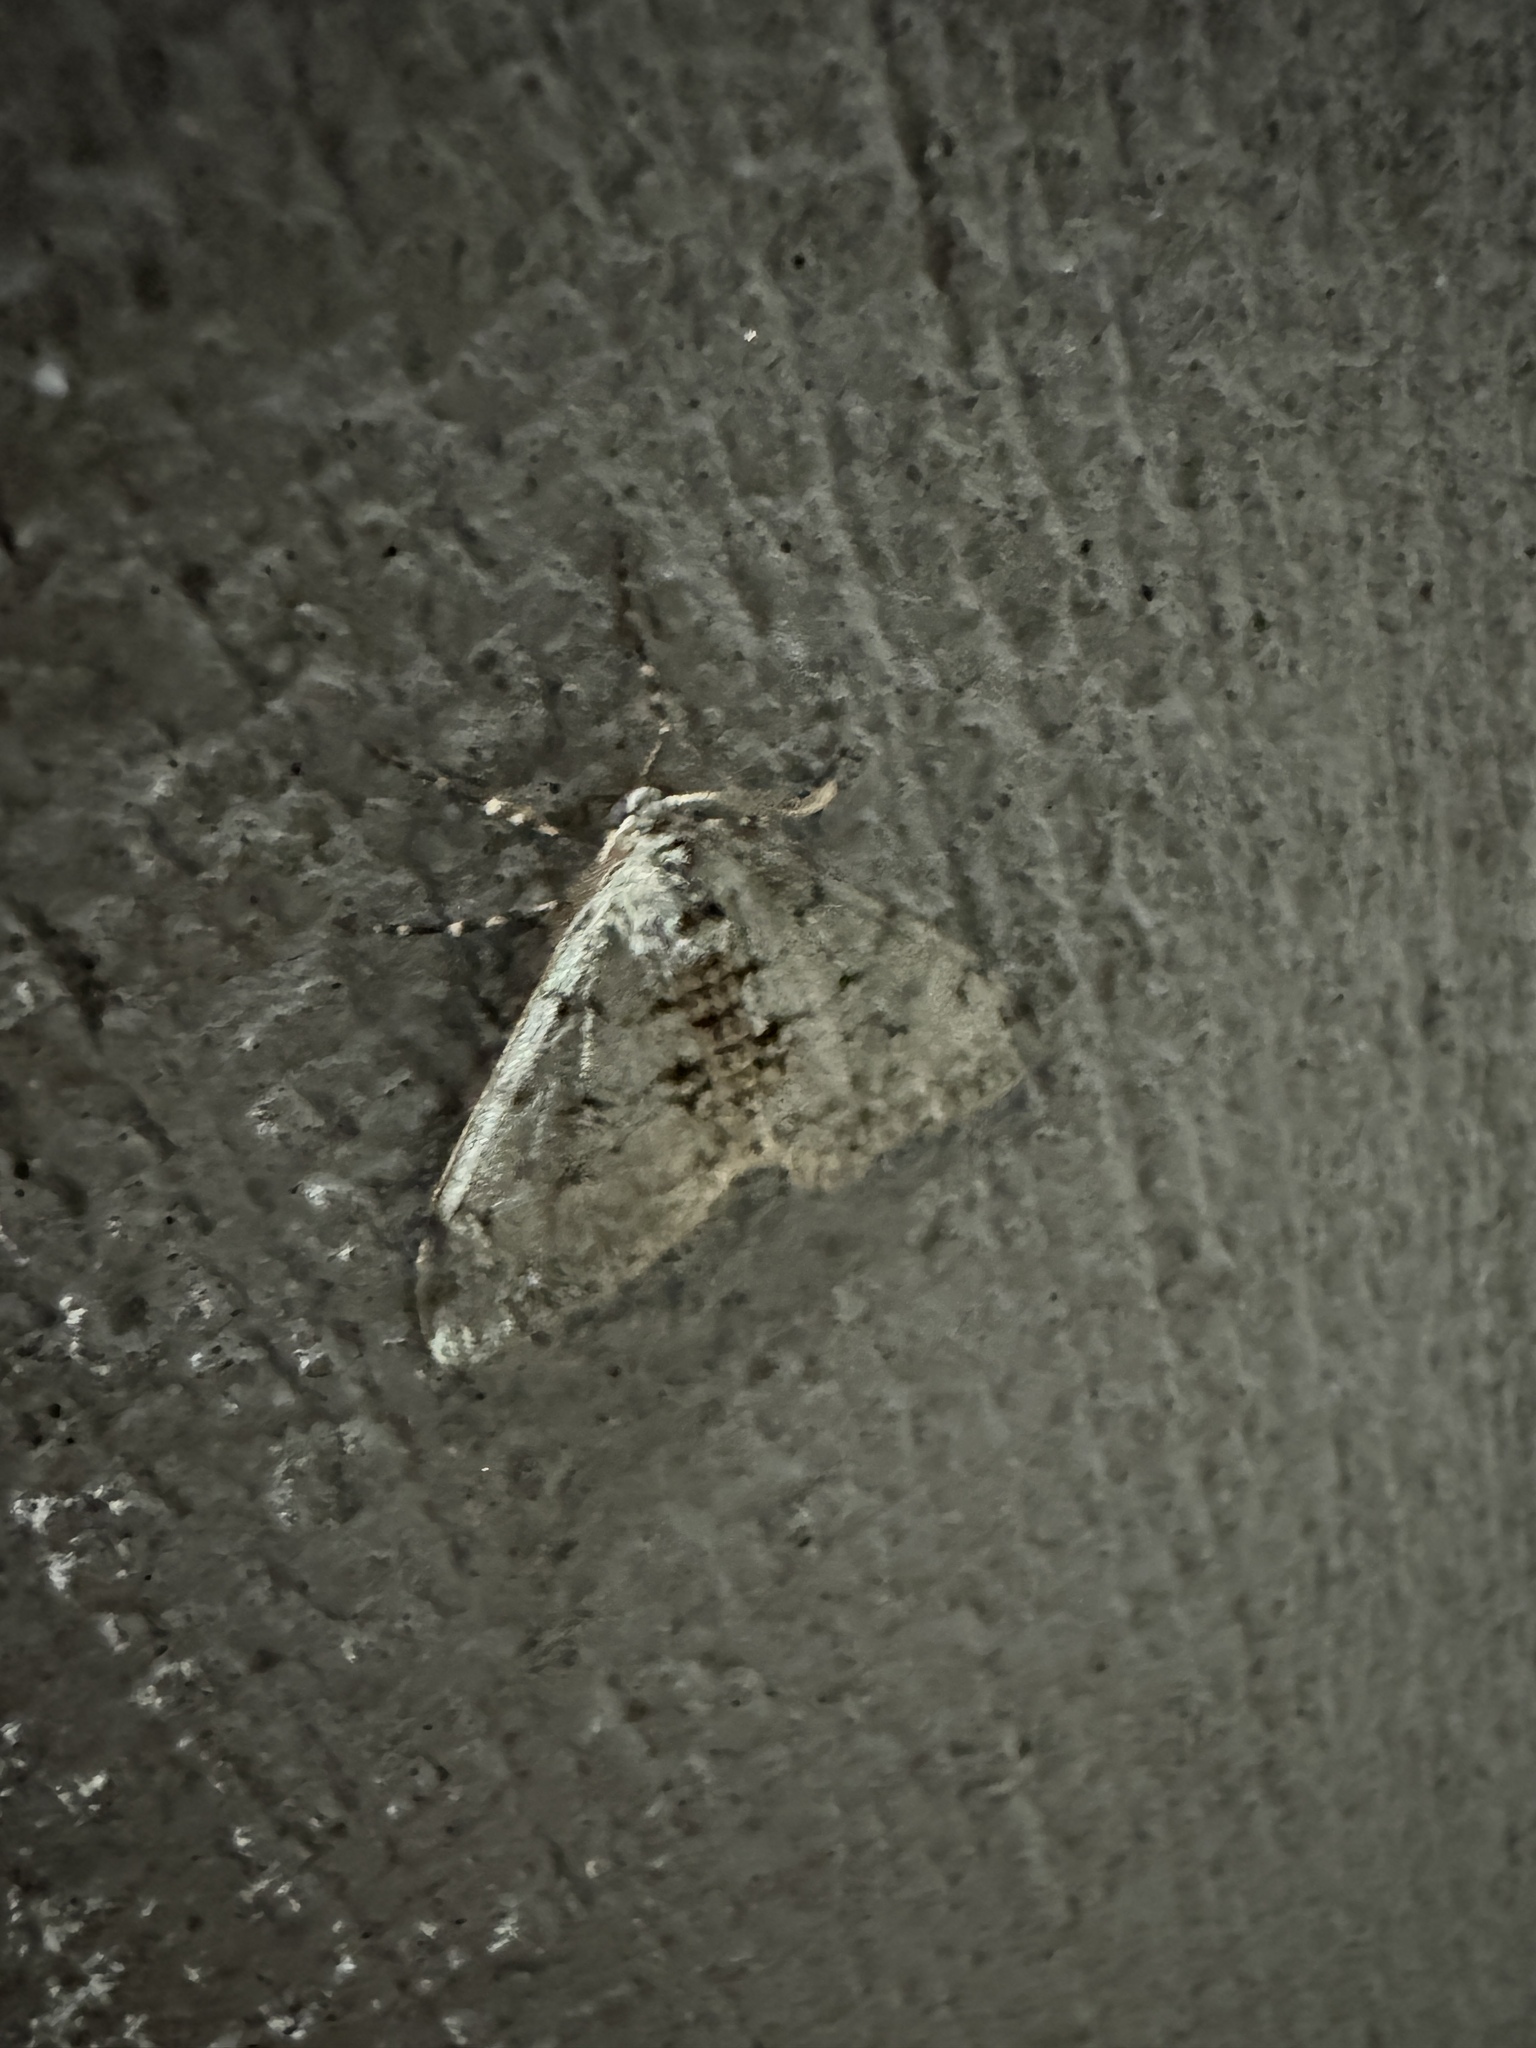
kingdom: Animalia
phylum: Arthropoda
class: Insecta
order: Lepidoptera
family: Geometridae
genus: Phigalia
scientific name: Phigalia strigataria
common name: Small phigalia
